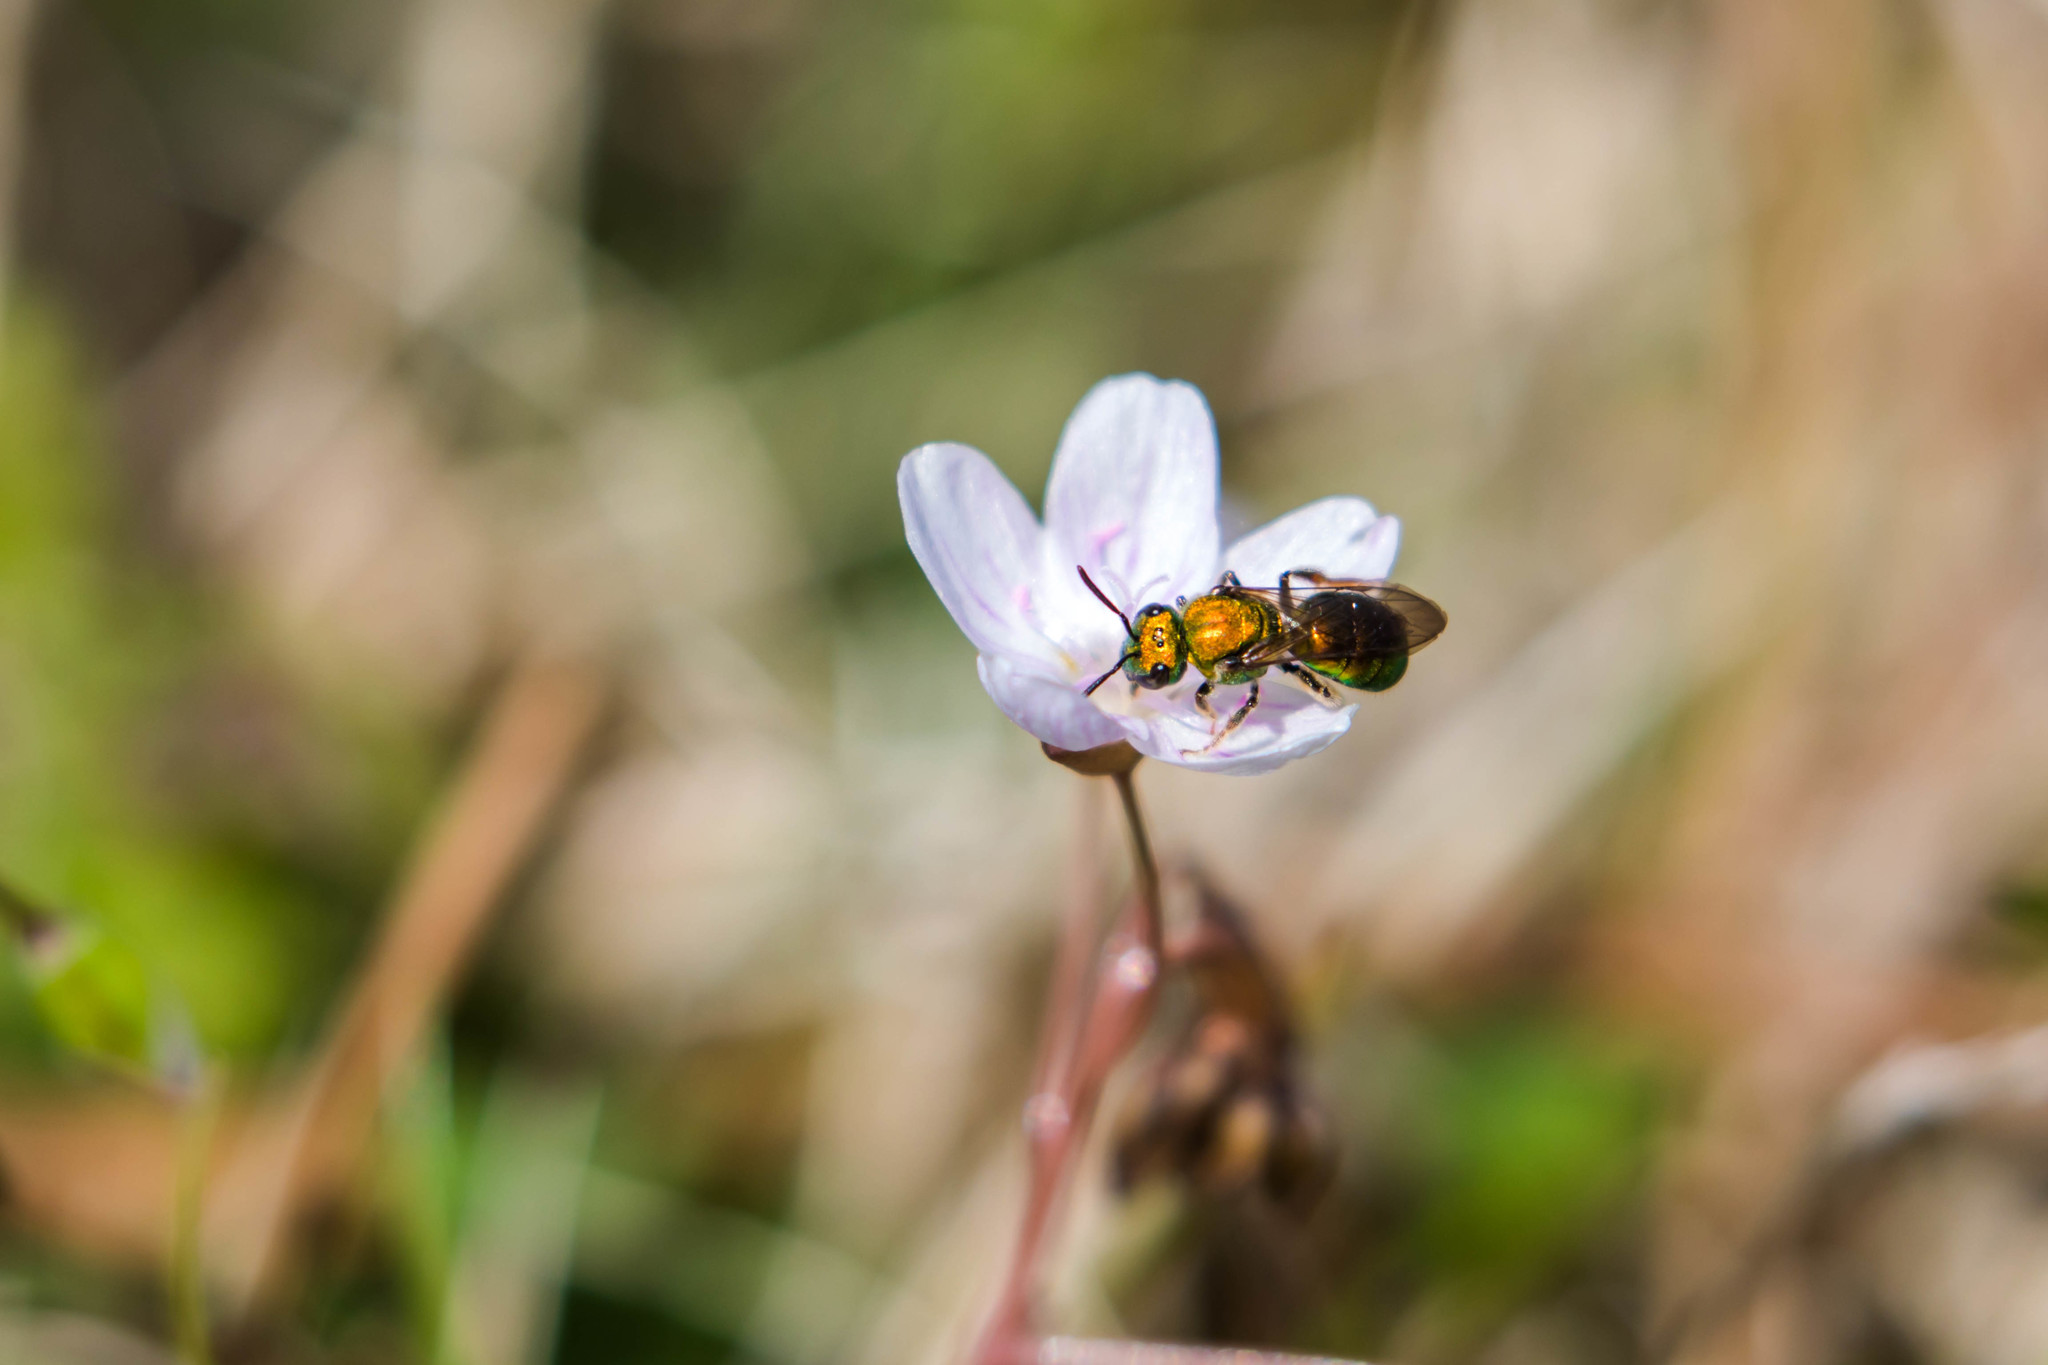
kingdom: Animalia
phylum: Arthropoda
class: Insecta
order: Hymenoptera
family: Halictidae
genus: Augochlora
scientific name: Augochlora pura
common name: Pure green sweat bee
